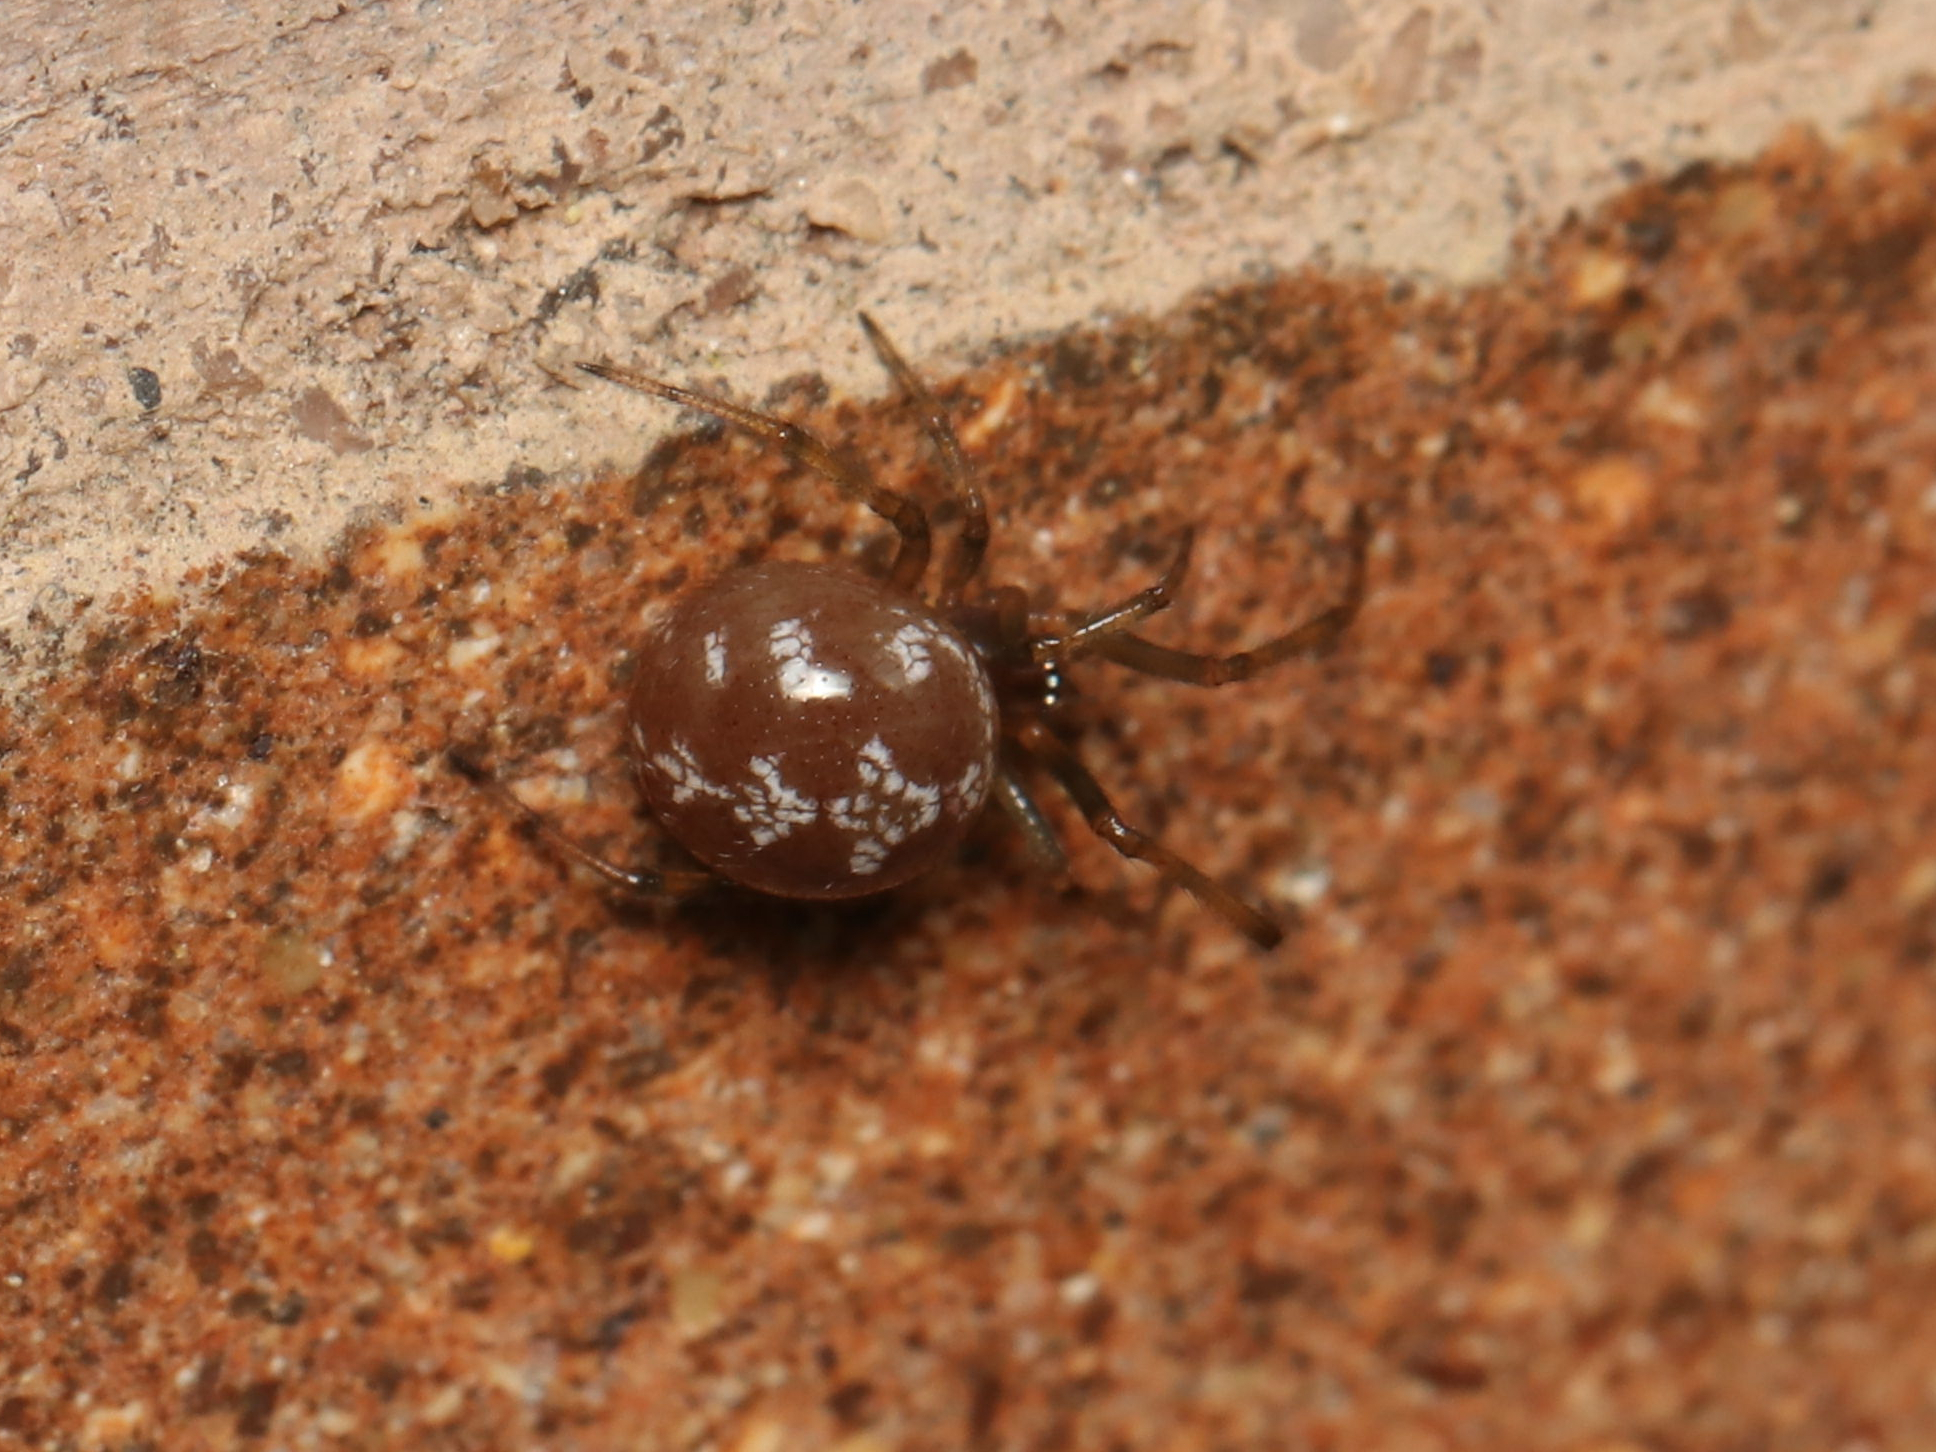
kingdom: Animalia
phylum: Arthropoda
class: Arachnida
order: Araneae
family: Theridiidae
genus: Steatoda
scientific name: Steatoda triangulosa
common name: Triangulate bud spider
